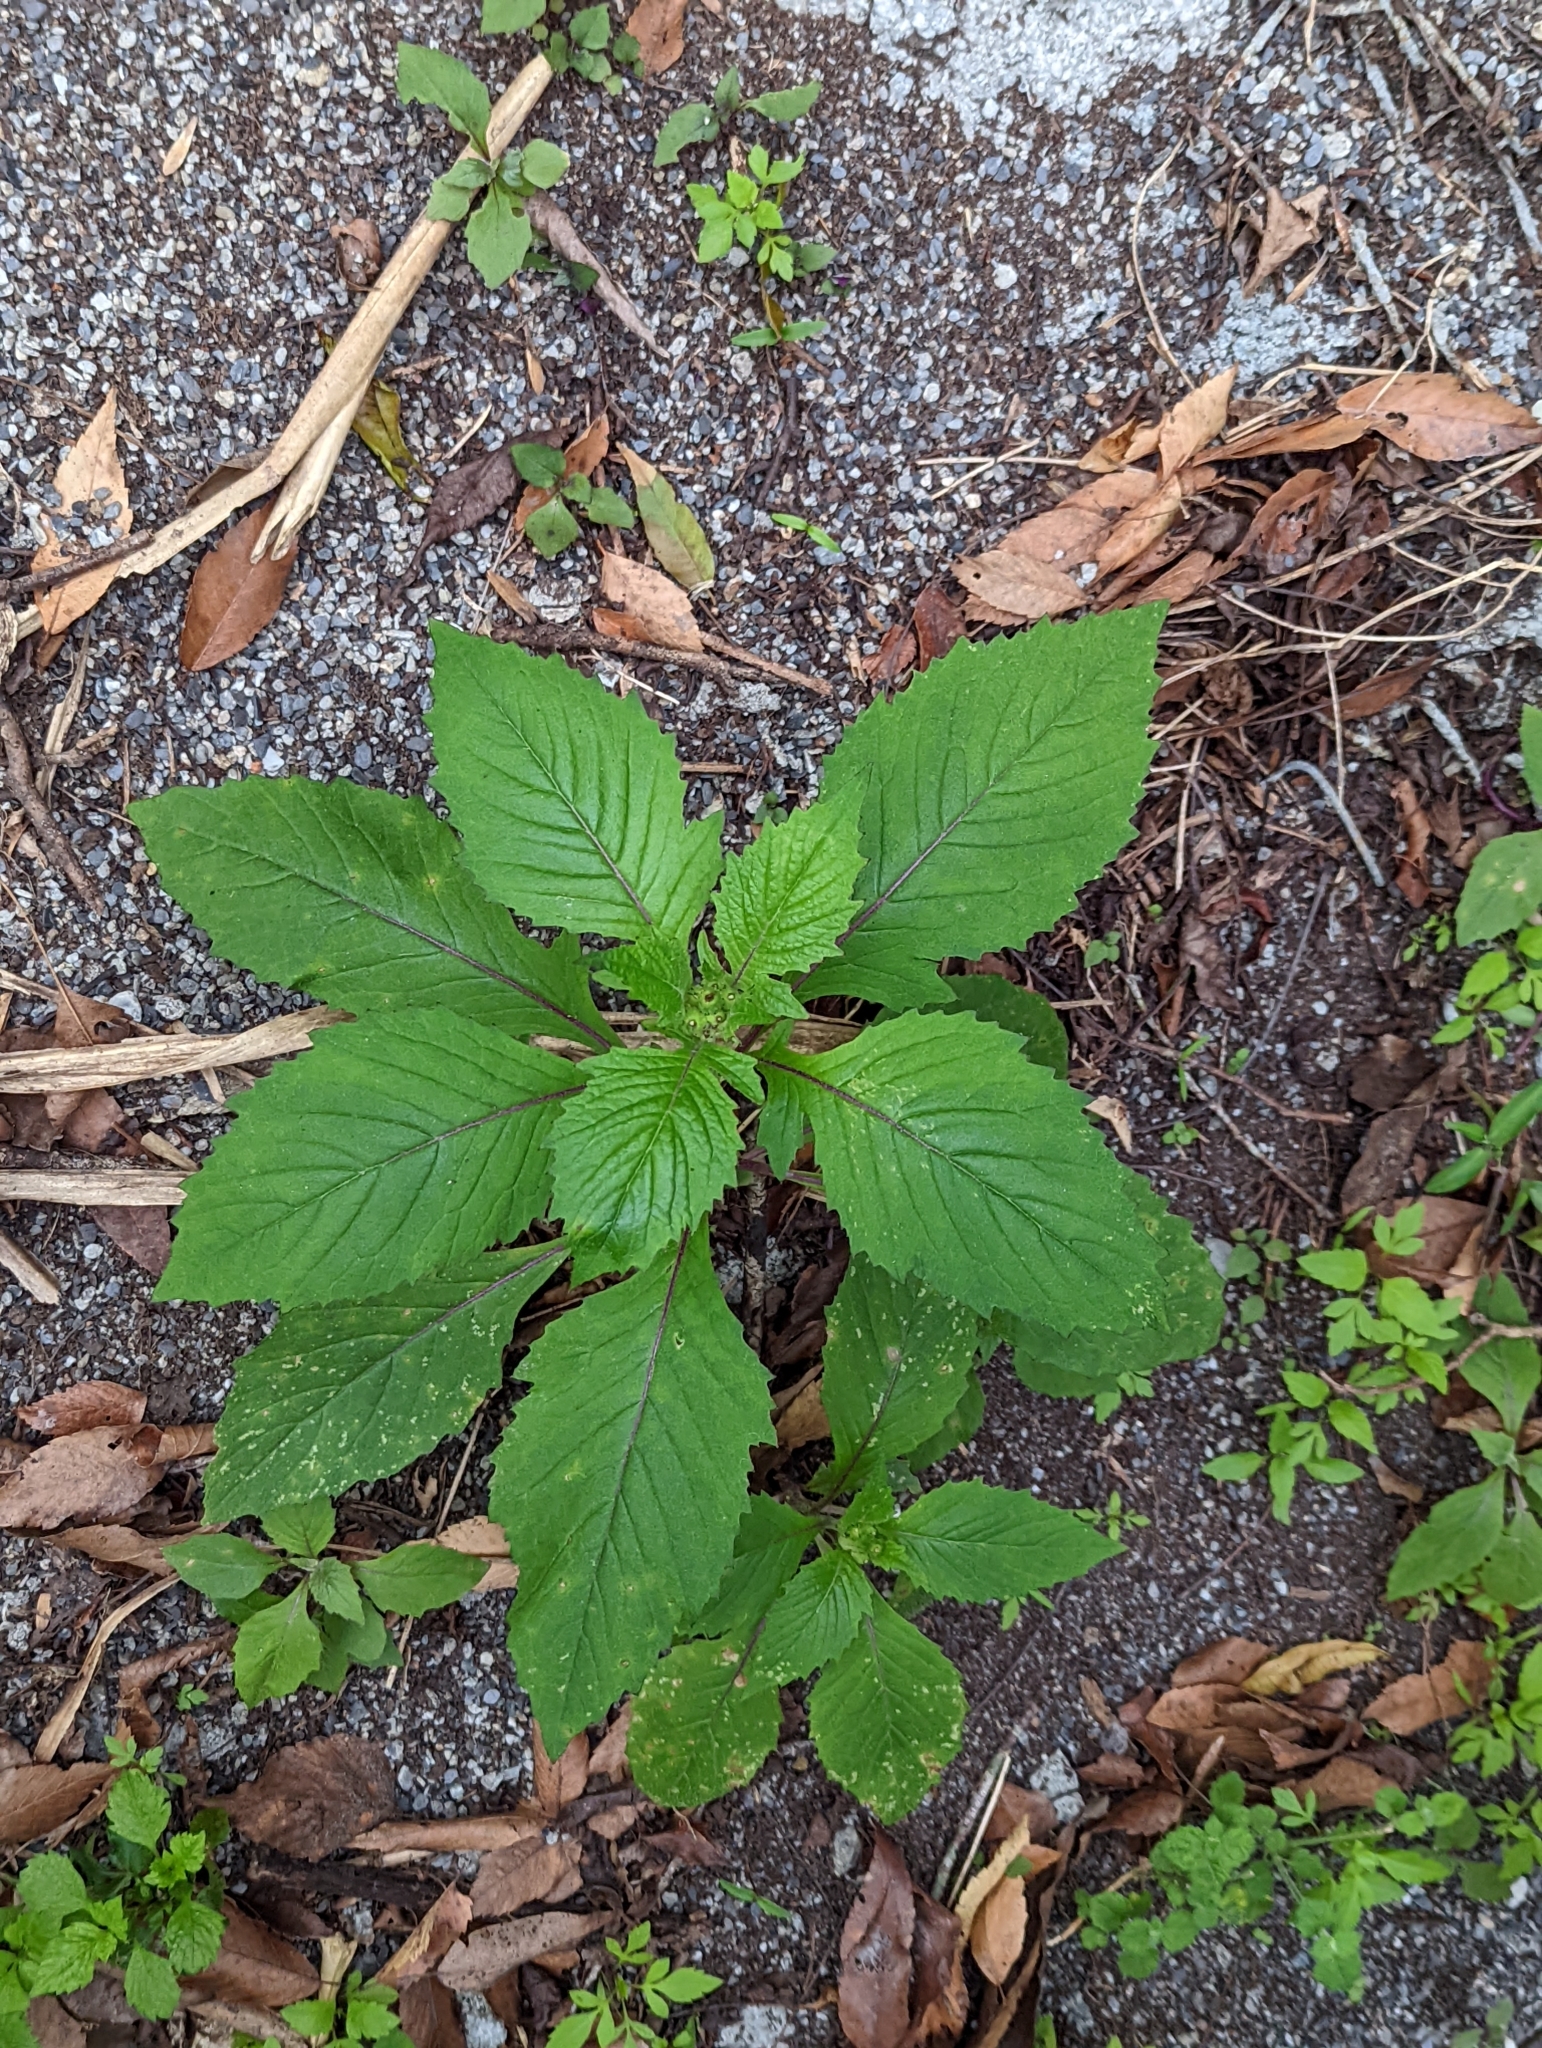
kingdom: Plantae
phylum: Tracheophyta
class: Magnoliopsida
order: Asterales
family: Asteraceae
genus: Crassocephalum
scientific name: Crassocephalum crepidioides
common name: Redflower ragleaf
